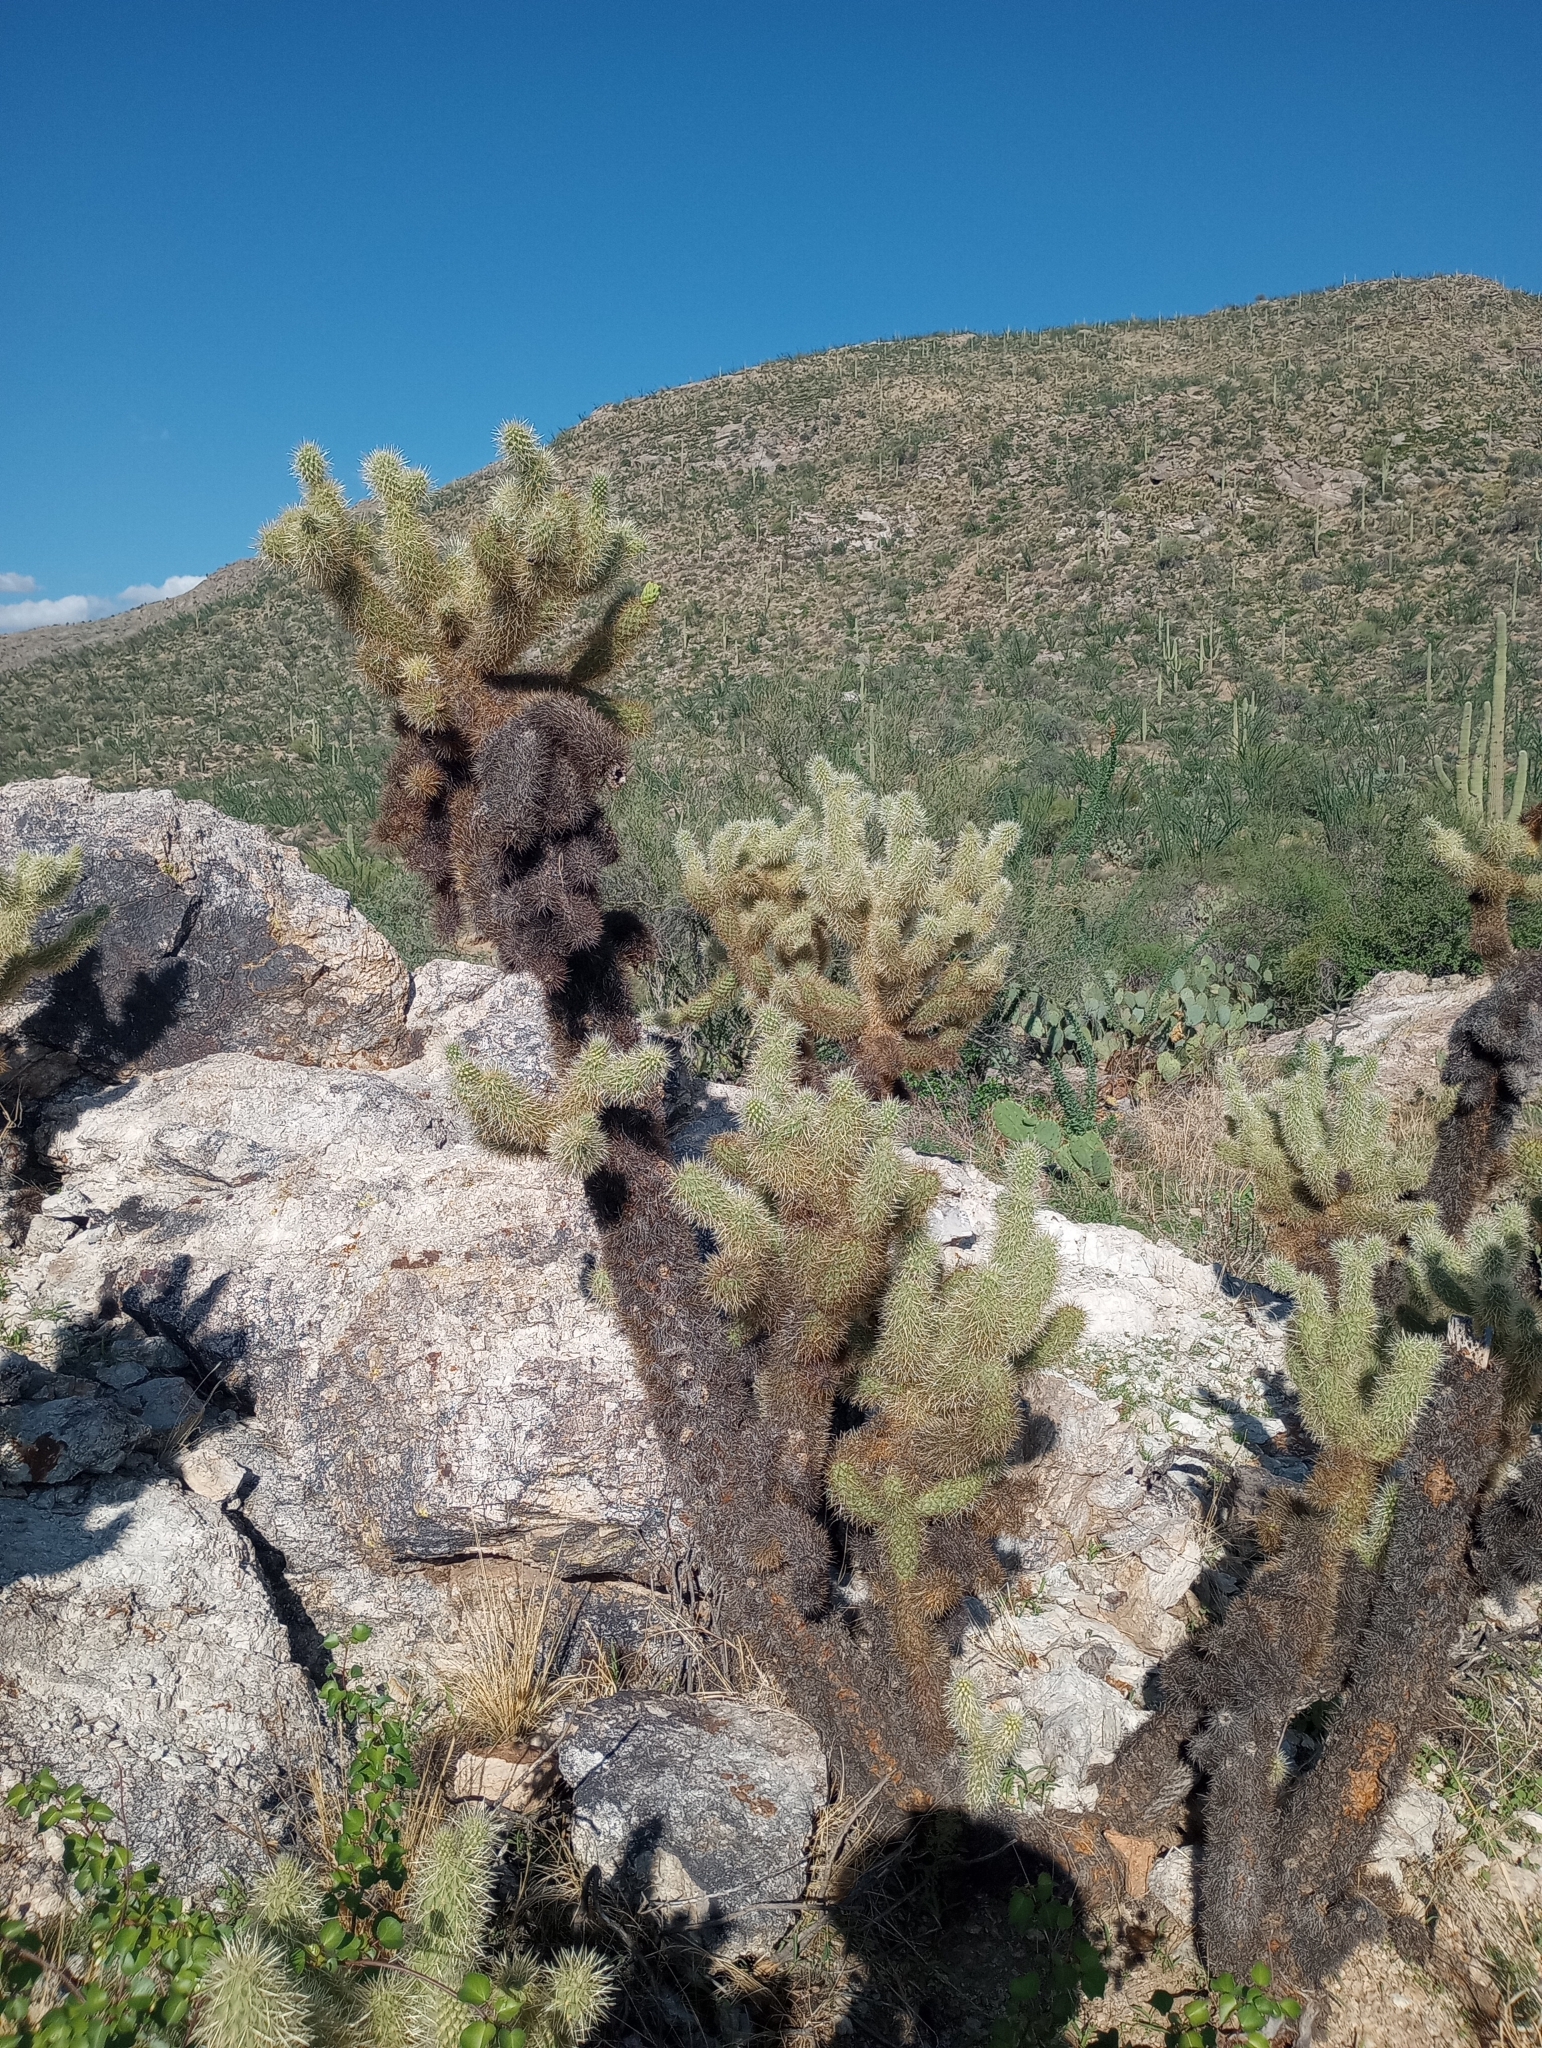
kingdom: Plantae
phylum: Tracheophyta
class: Magnoliopsida
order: Caryophyllales
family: Cactaceae
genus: Cylindropuntia
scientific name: Cylindropuntia fosbergii
